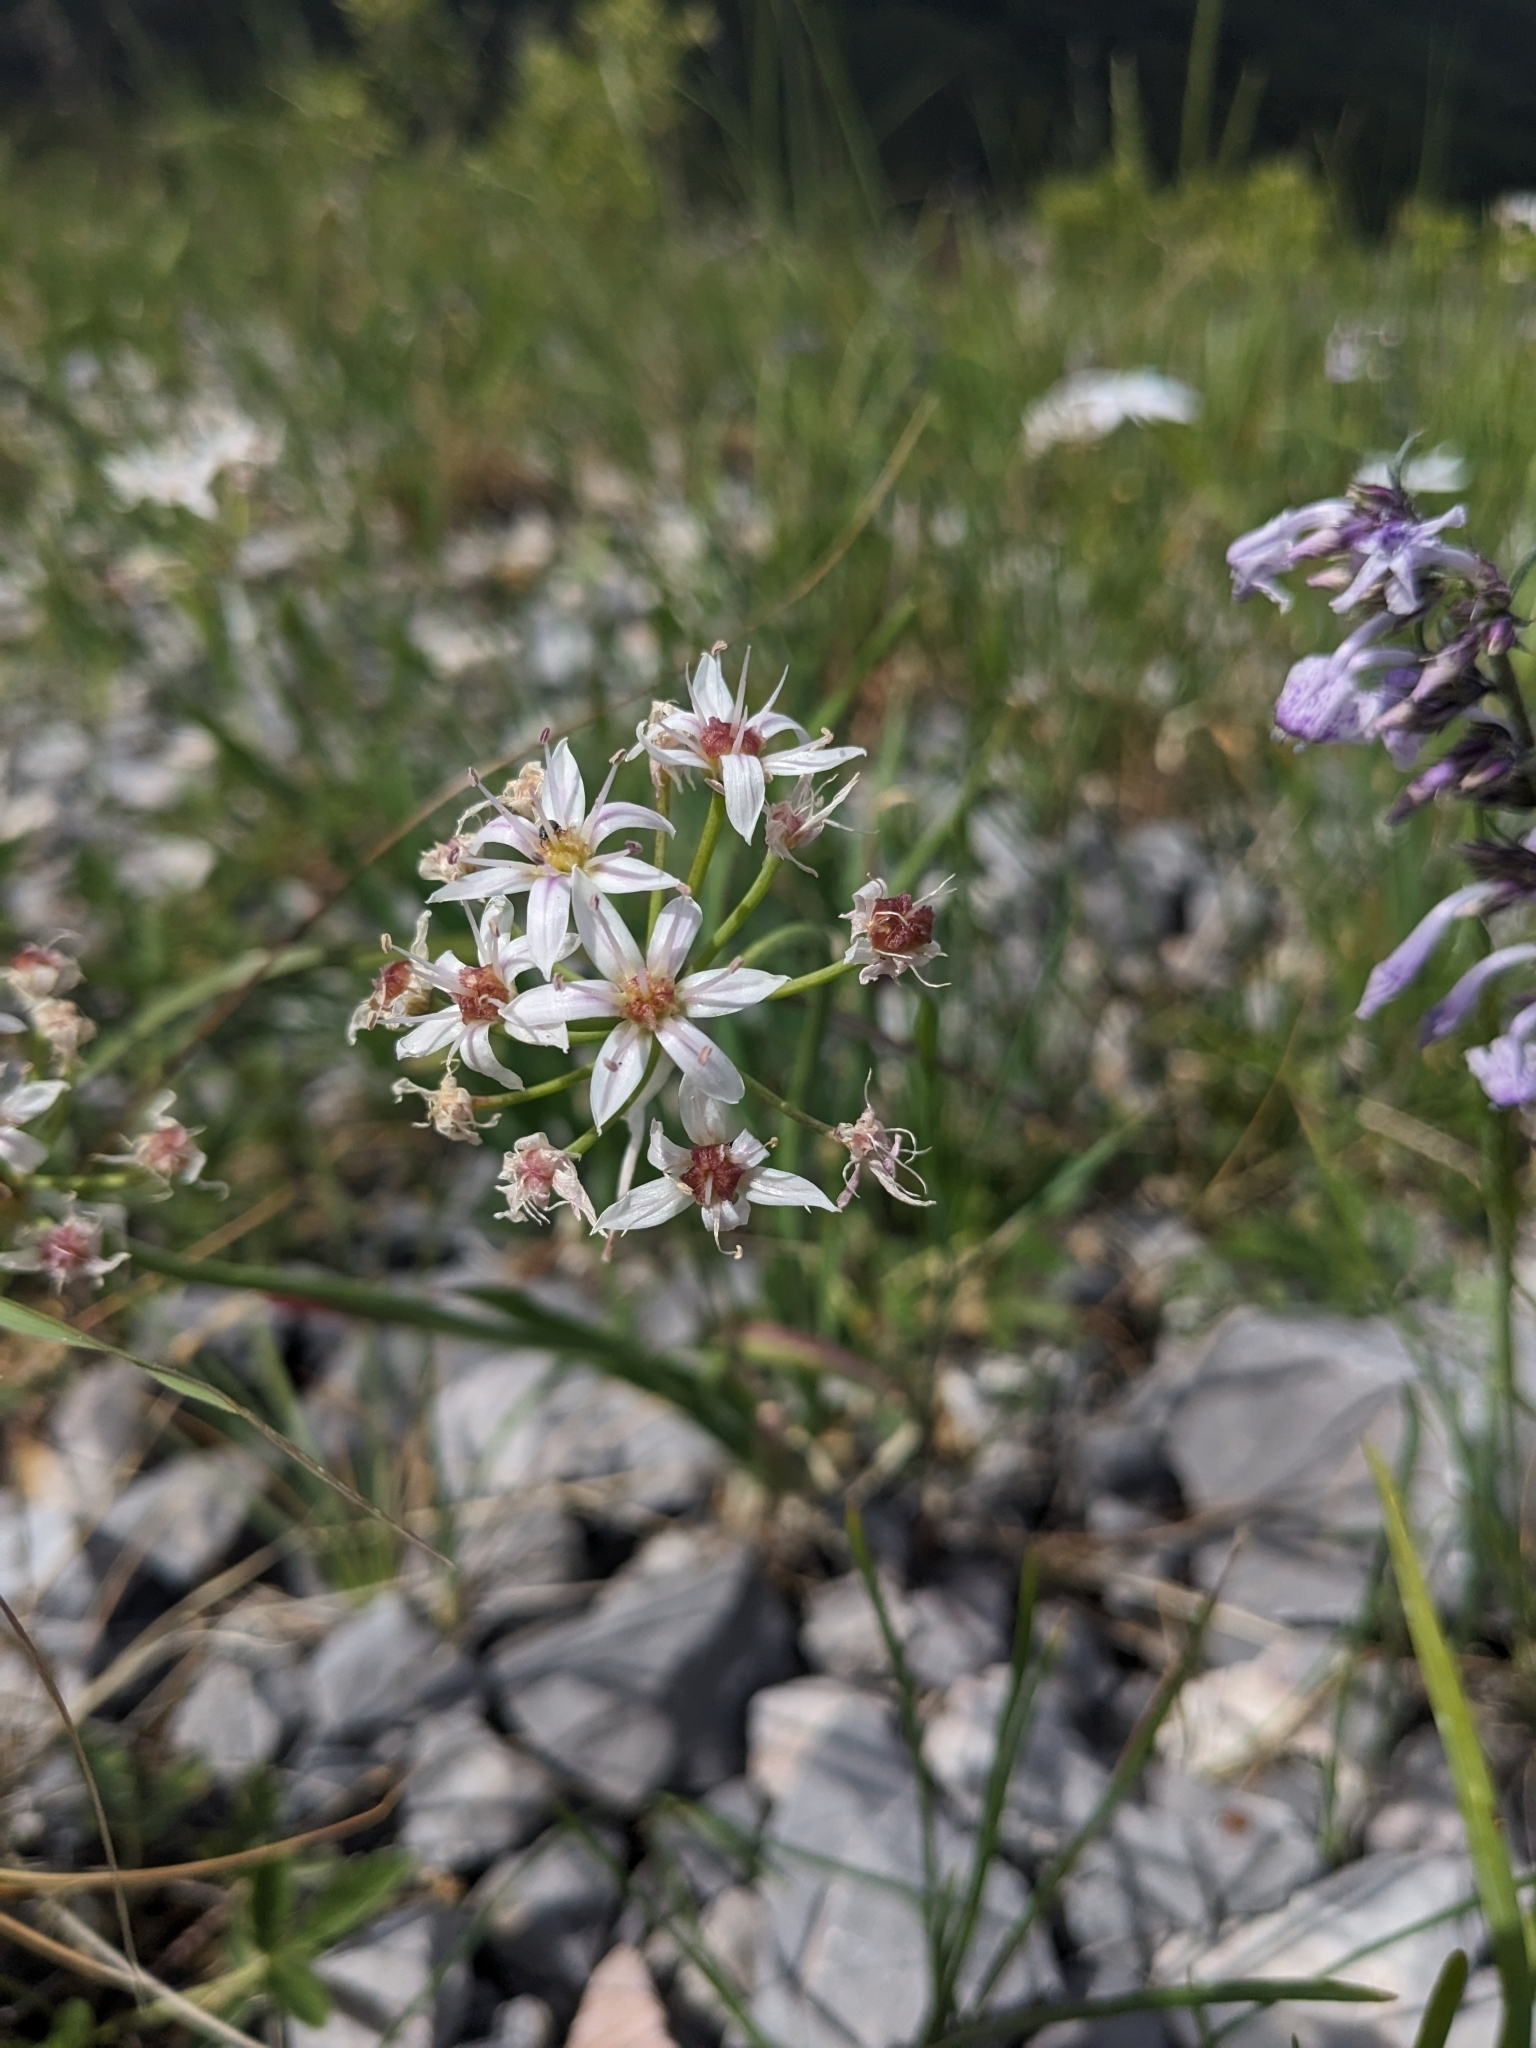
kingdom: Plantae
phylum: Tracheophyta
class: Liliopsida
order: Asparagales
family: Amaryllidaceae
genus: Allium
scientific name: Allium plummerae
